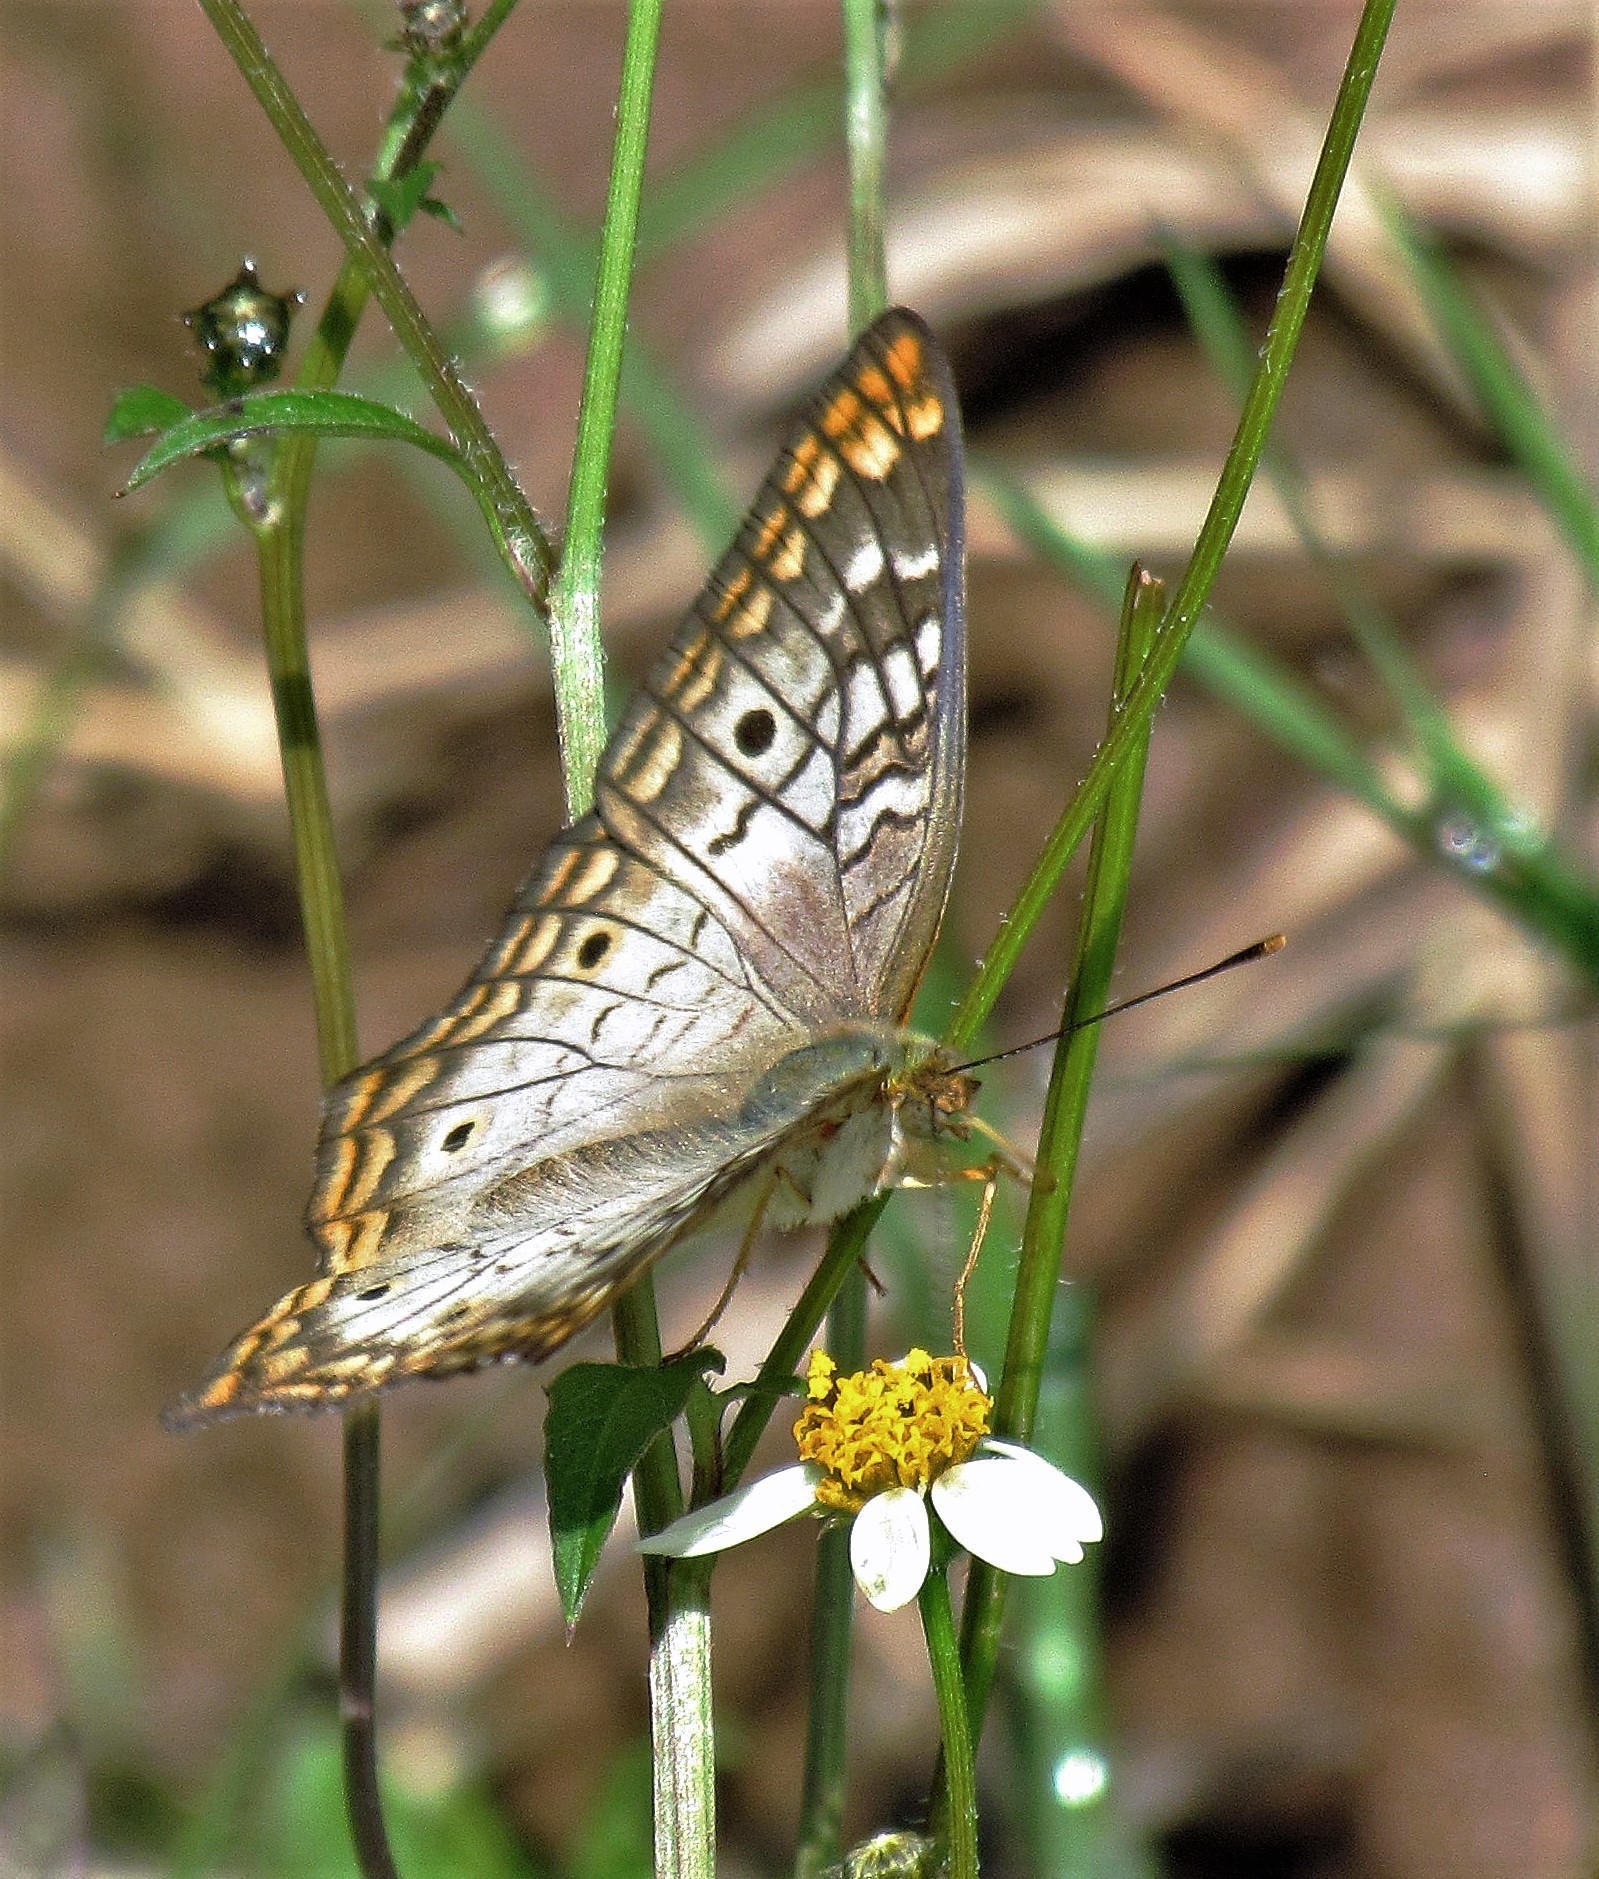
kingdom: Animalia
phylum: Arthropoda
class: Insecta
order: Lepidoptera
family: Nymphalidae
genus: Anartia
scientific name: Anartia jatrophae
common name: White peacock
